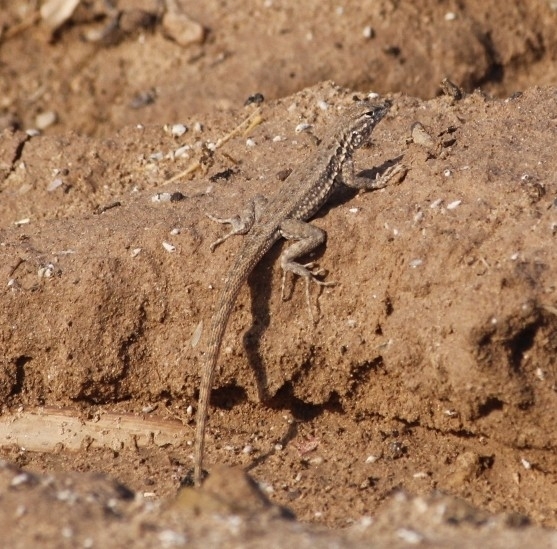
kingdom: Animalia
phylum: Chordata
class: Squamata
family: Phrynosomatidae
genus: Uta
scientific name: Uta stansburiana
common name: Side-blotched lizard
